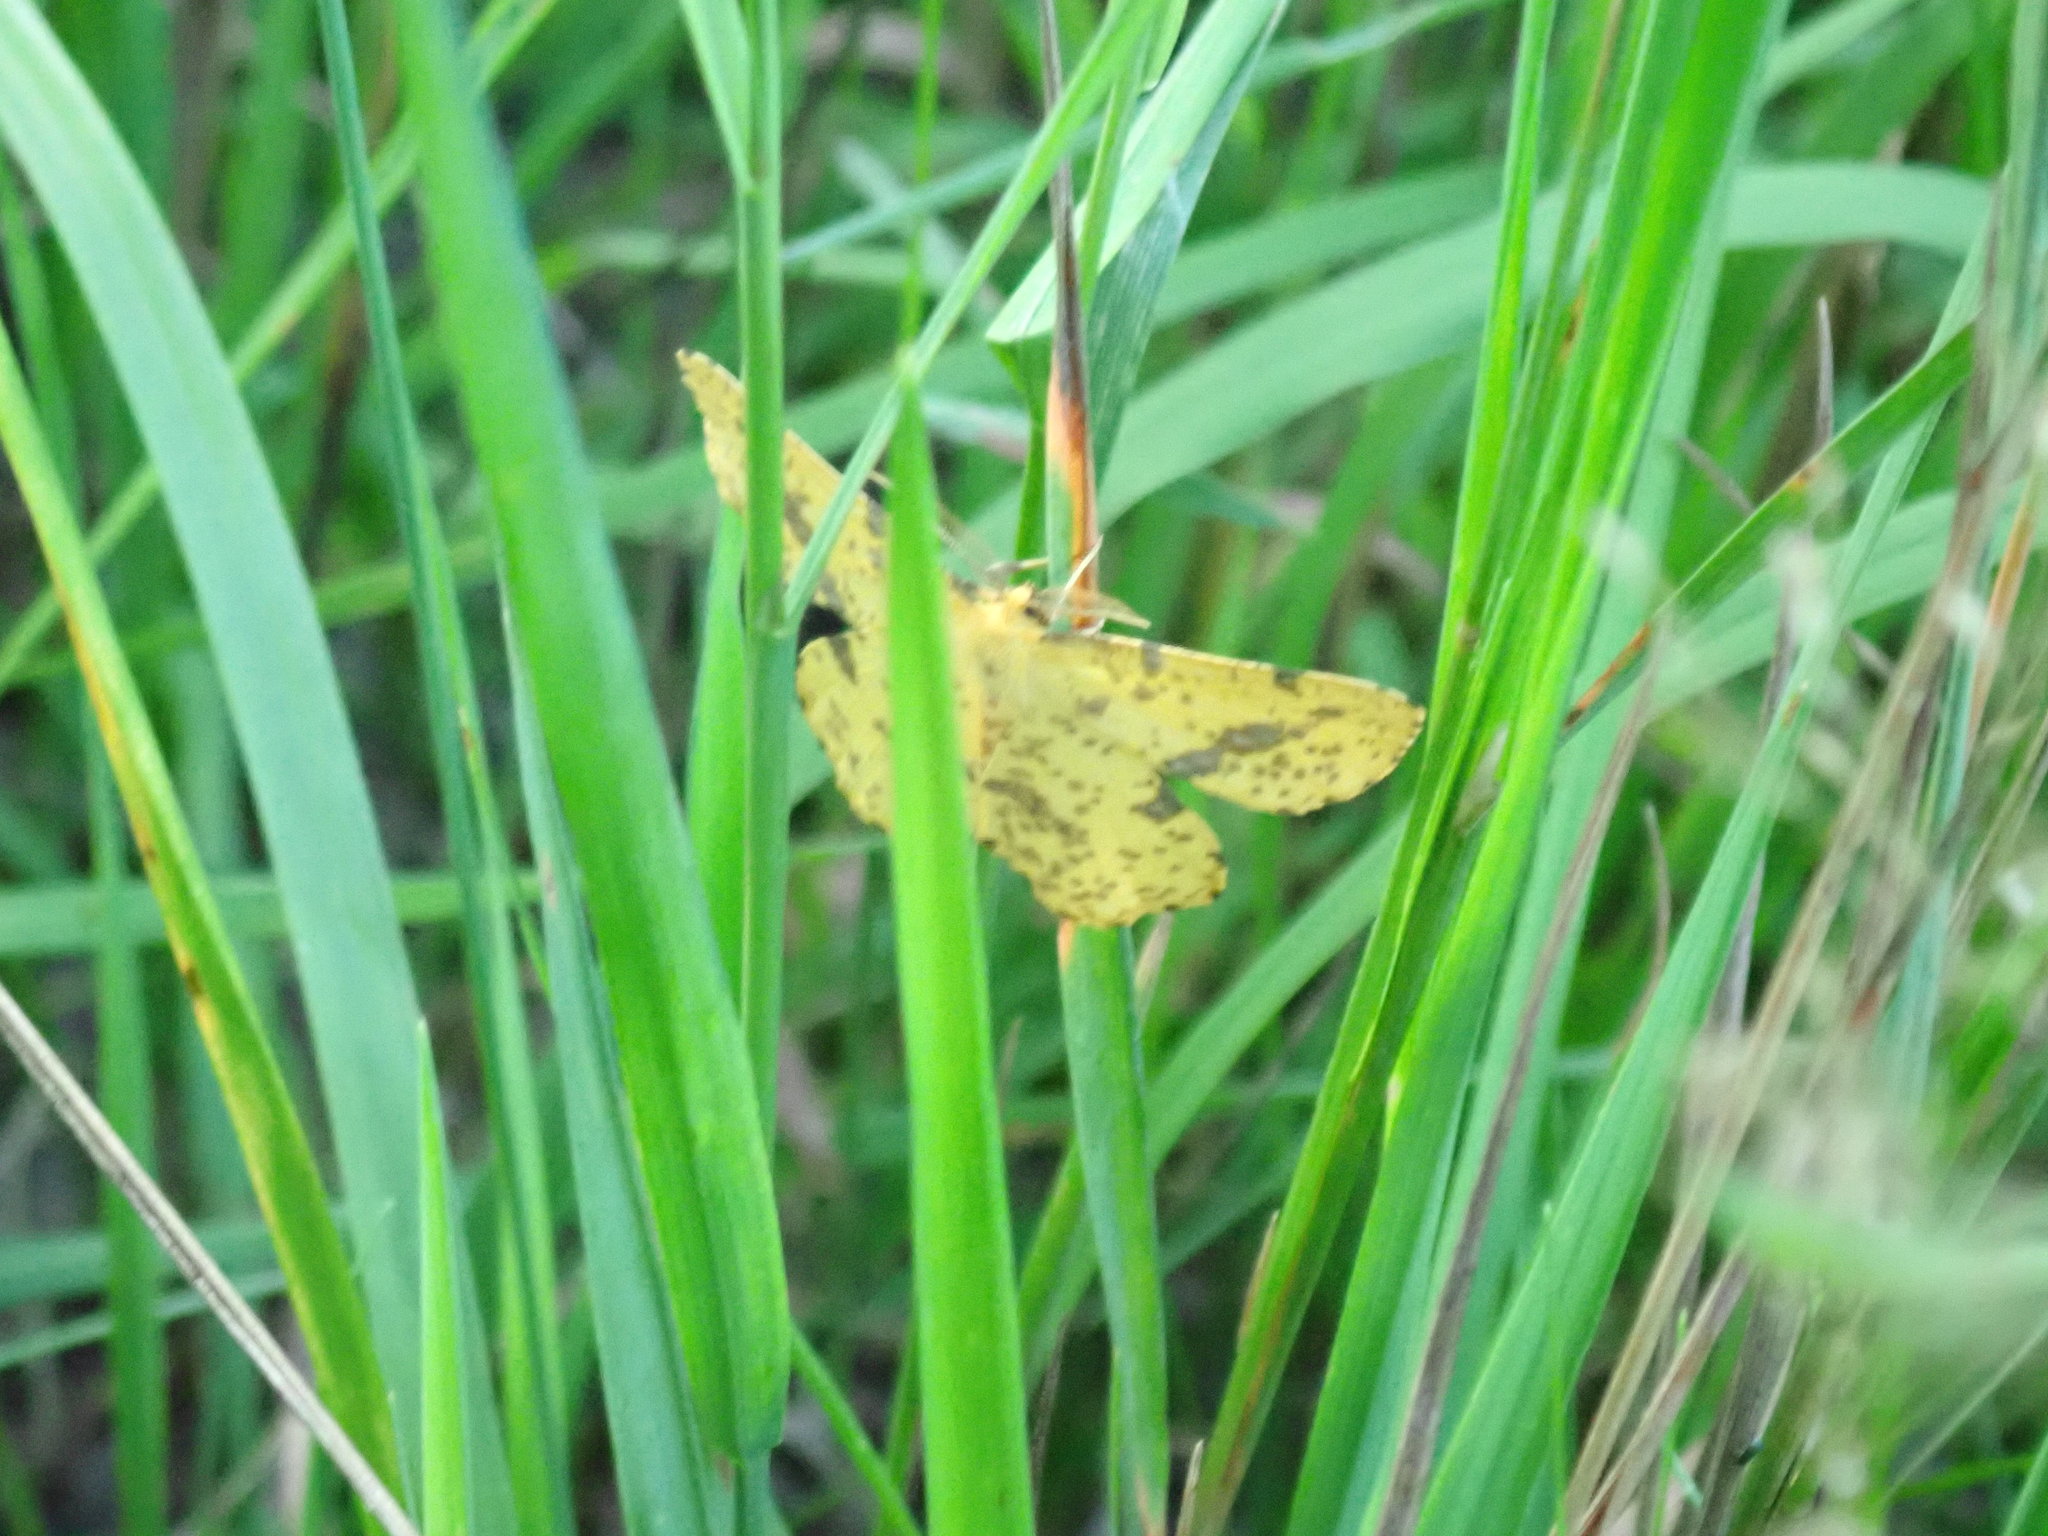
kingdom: Animalia
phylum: Arthropoda
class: Insecta
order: Lepidoptera
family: Geometridae
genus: Xanthotype
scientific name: Xanthotype
